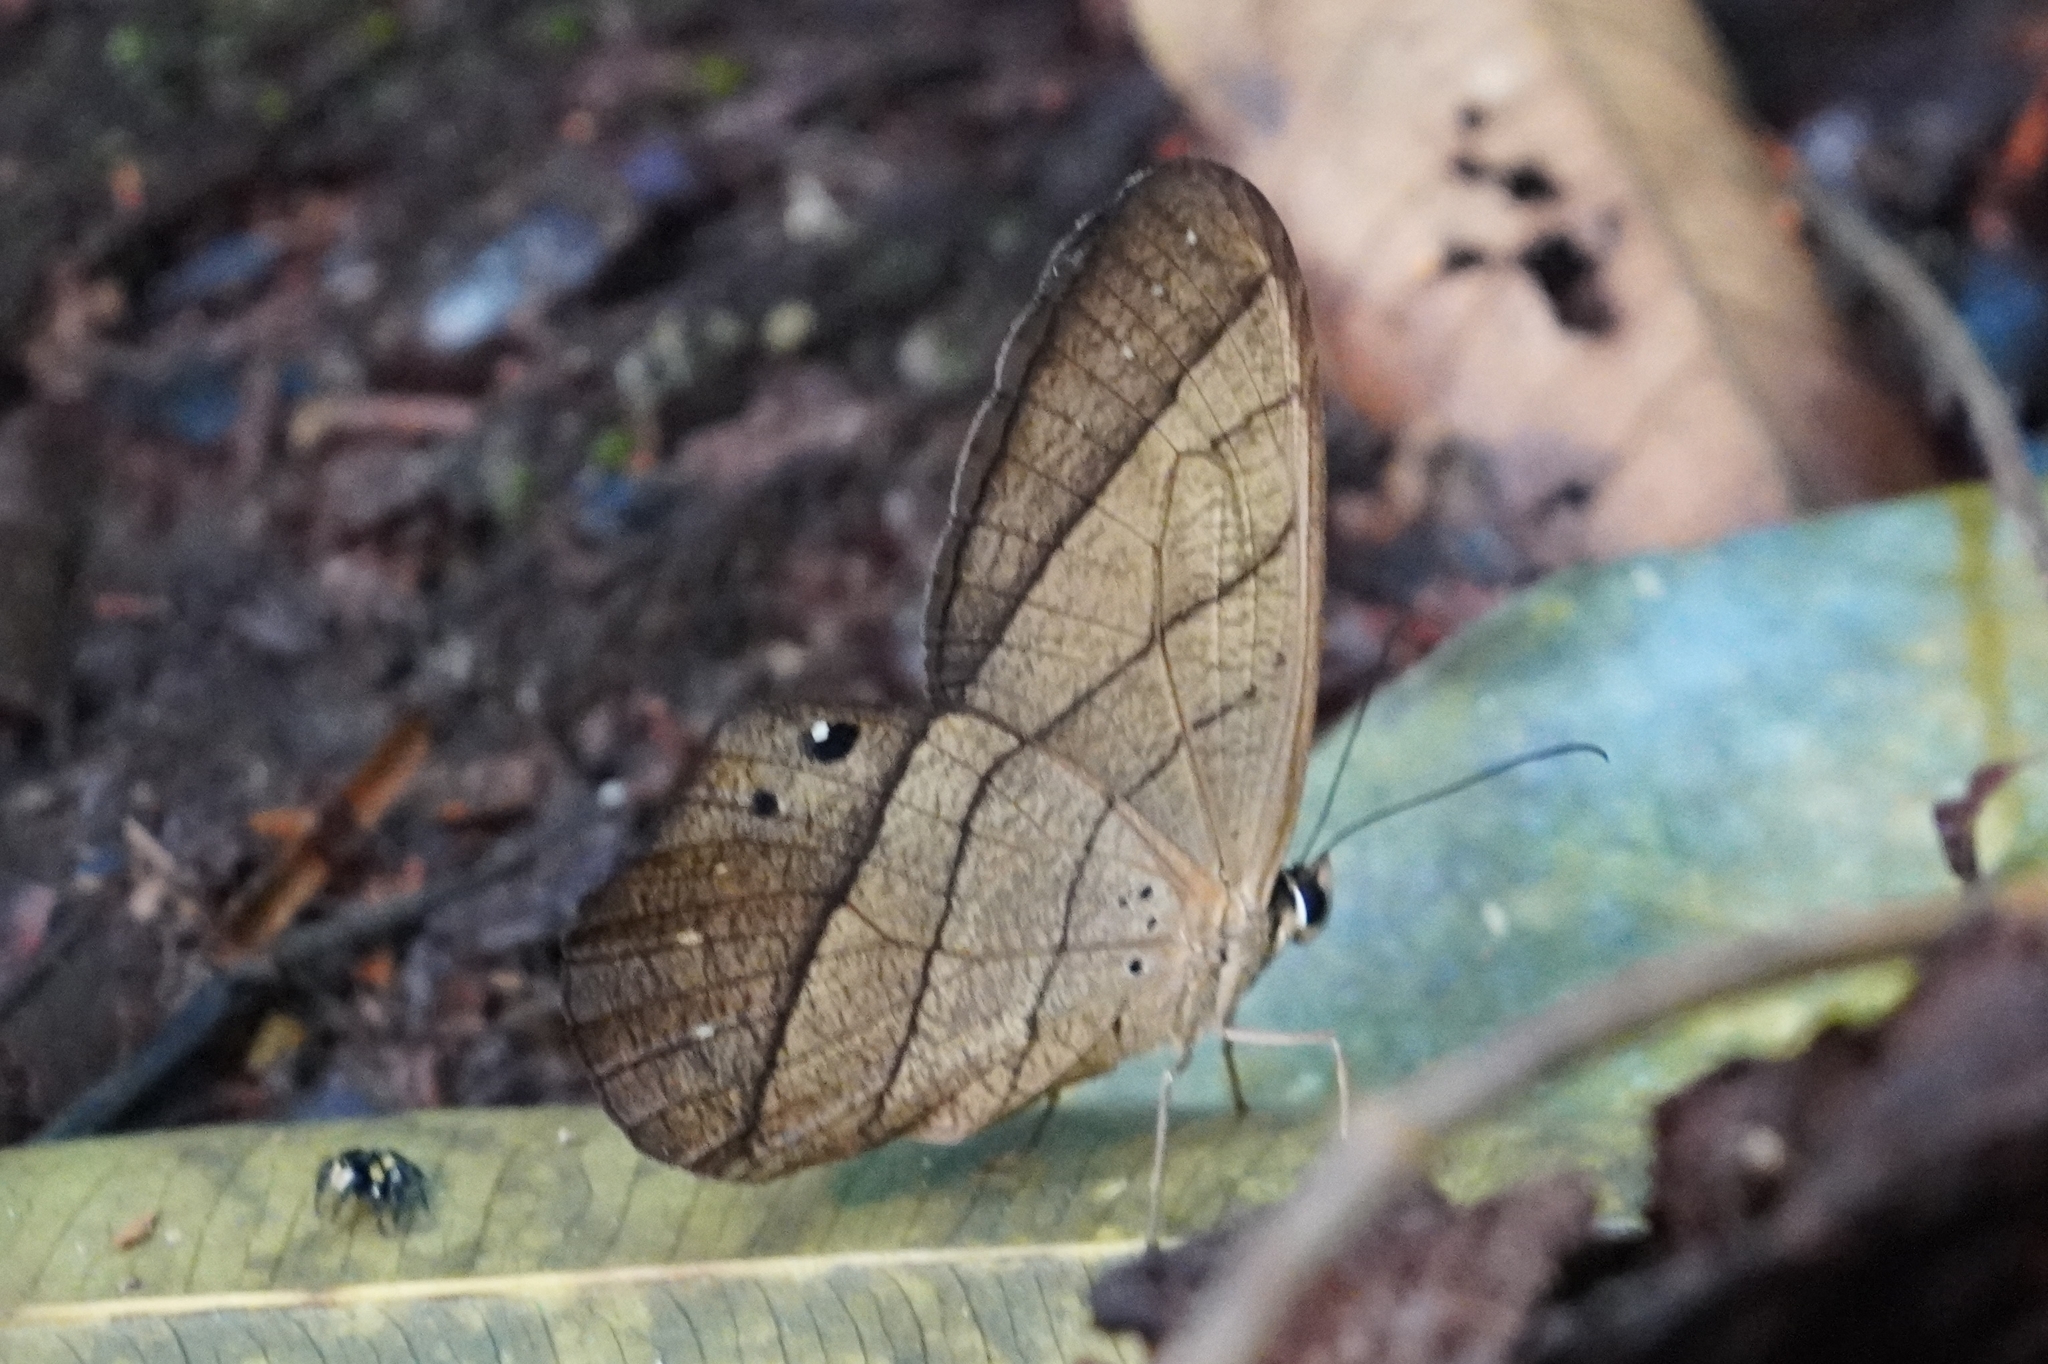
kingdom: Animalia
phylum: Arthropoda
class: Insecta
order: Lepidoptera
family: Nymphalidae
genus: Pierella
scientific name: Pierella luna
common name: Moon satyr
